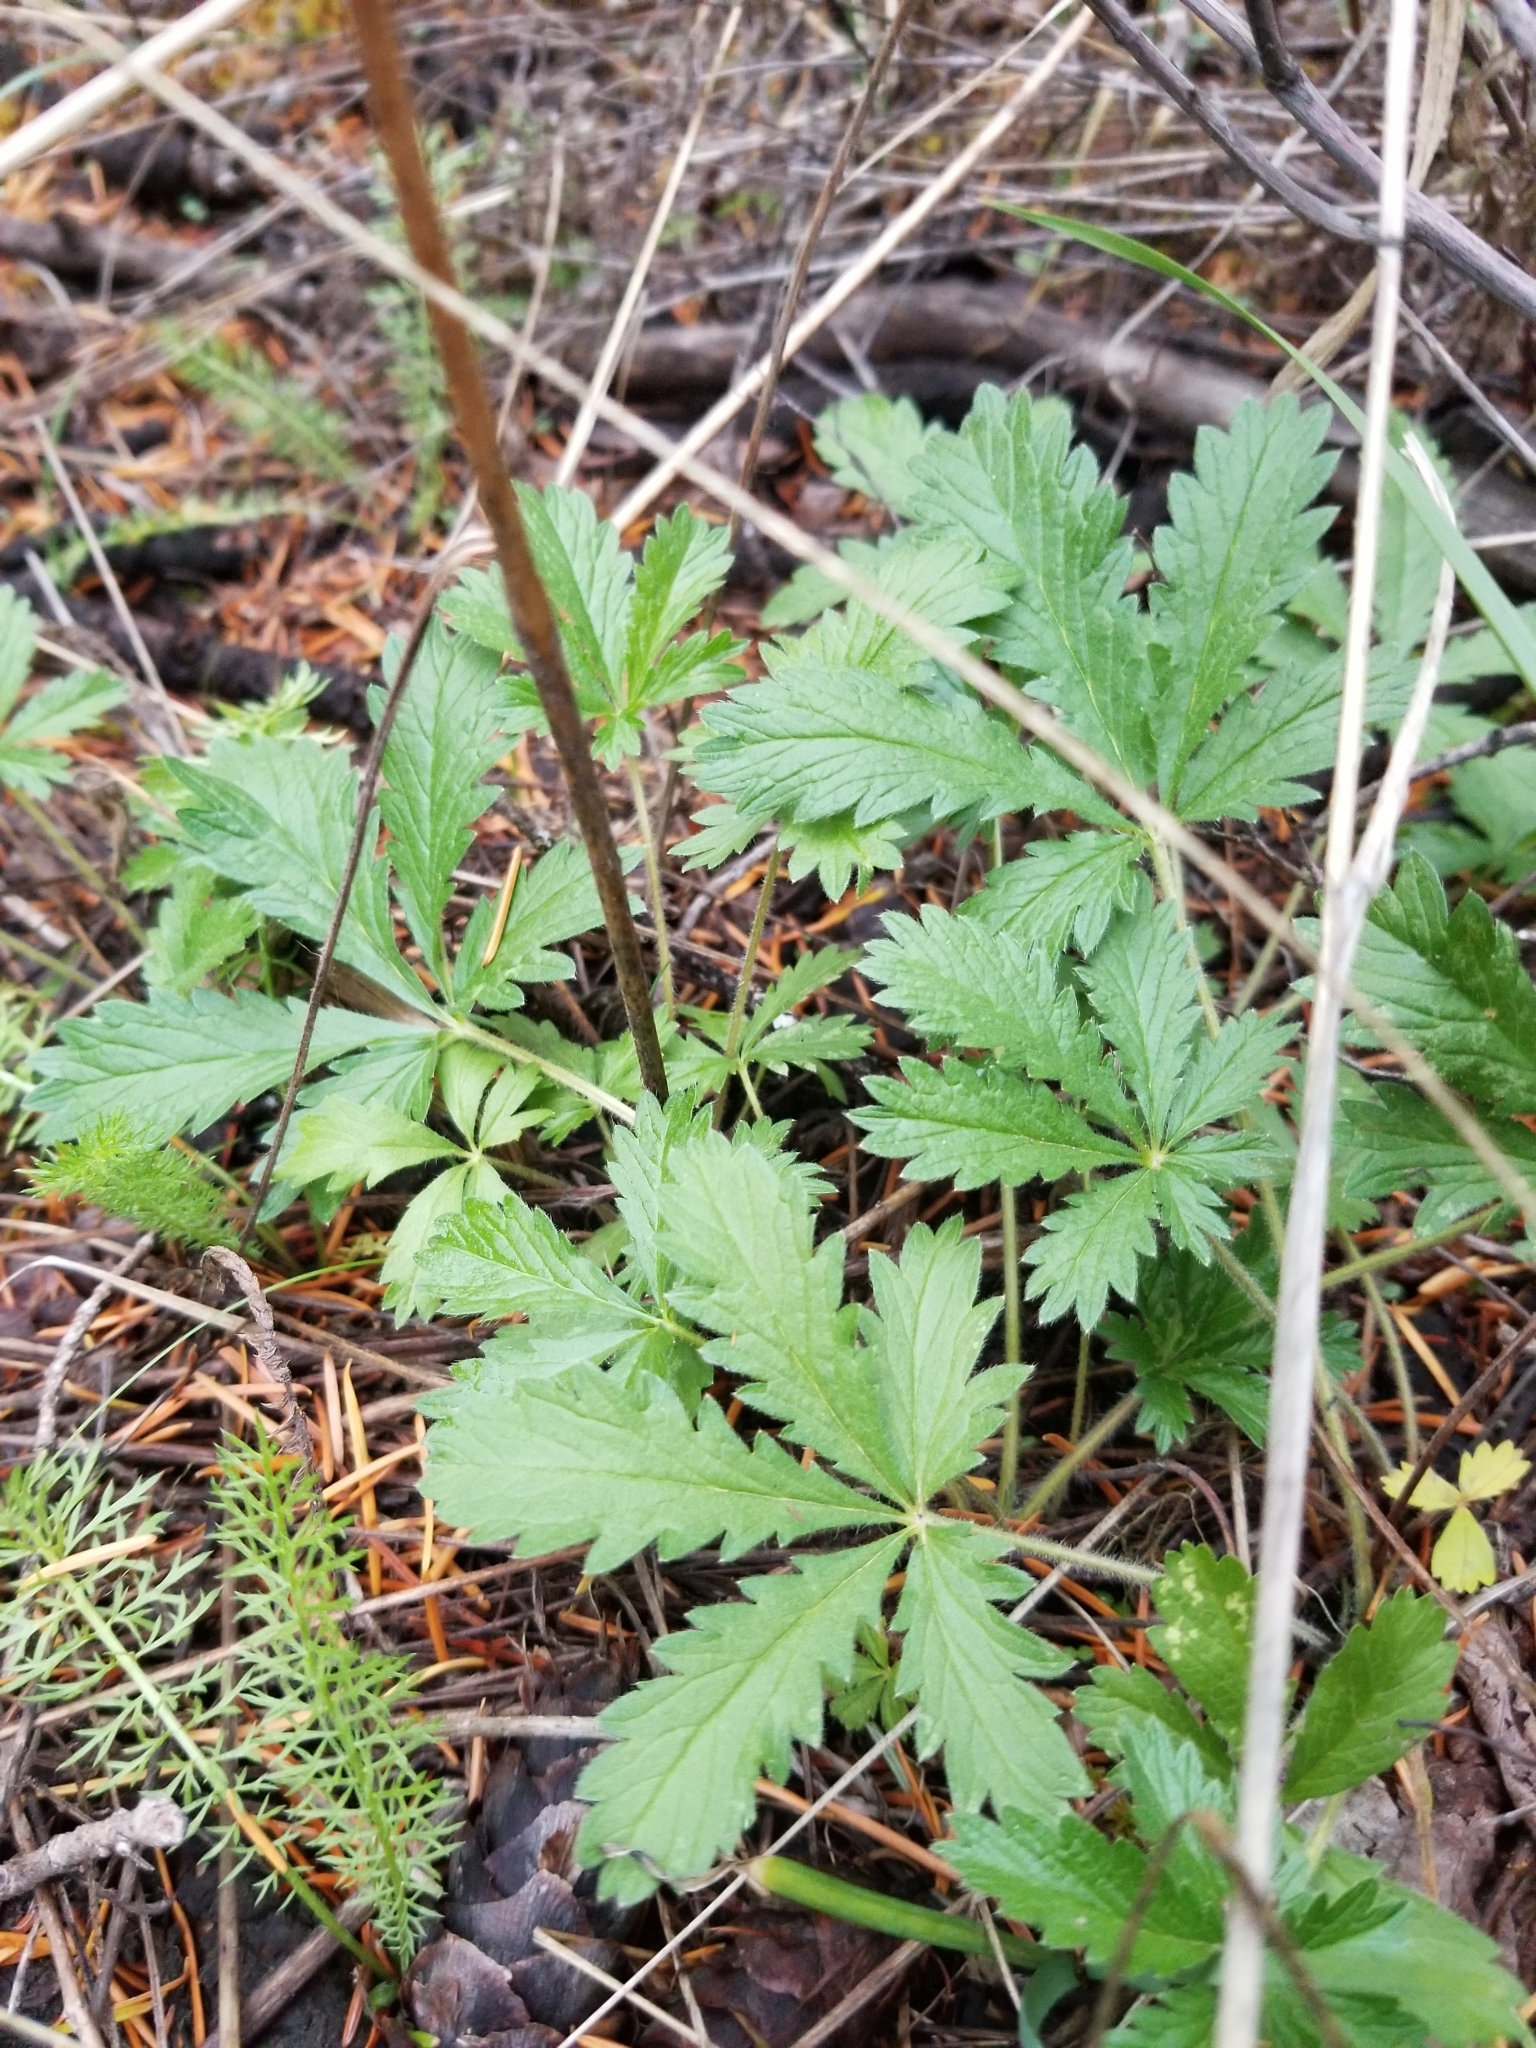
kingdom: Plantae
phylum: Tracheophyta
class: Magnoliopsida
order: Rosales
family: Rosaceae
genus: Potentilla
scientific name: Potentilla recta
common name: Sulphur cinquefoil
